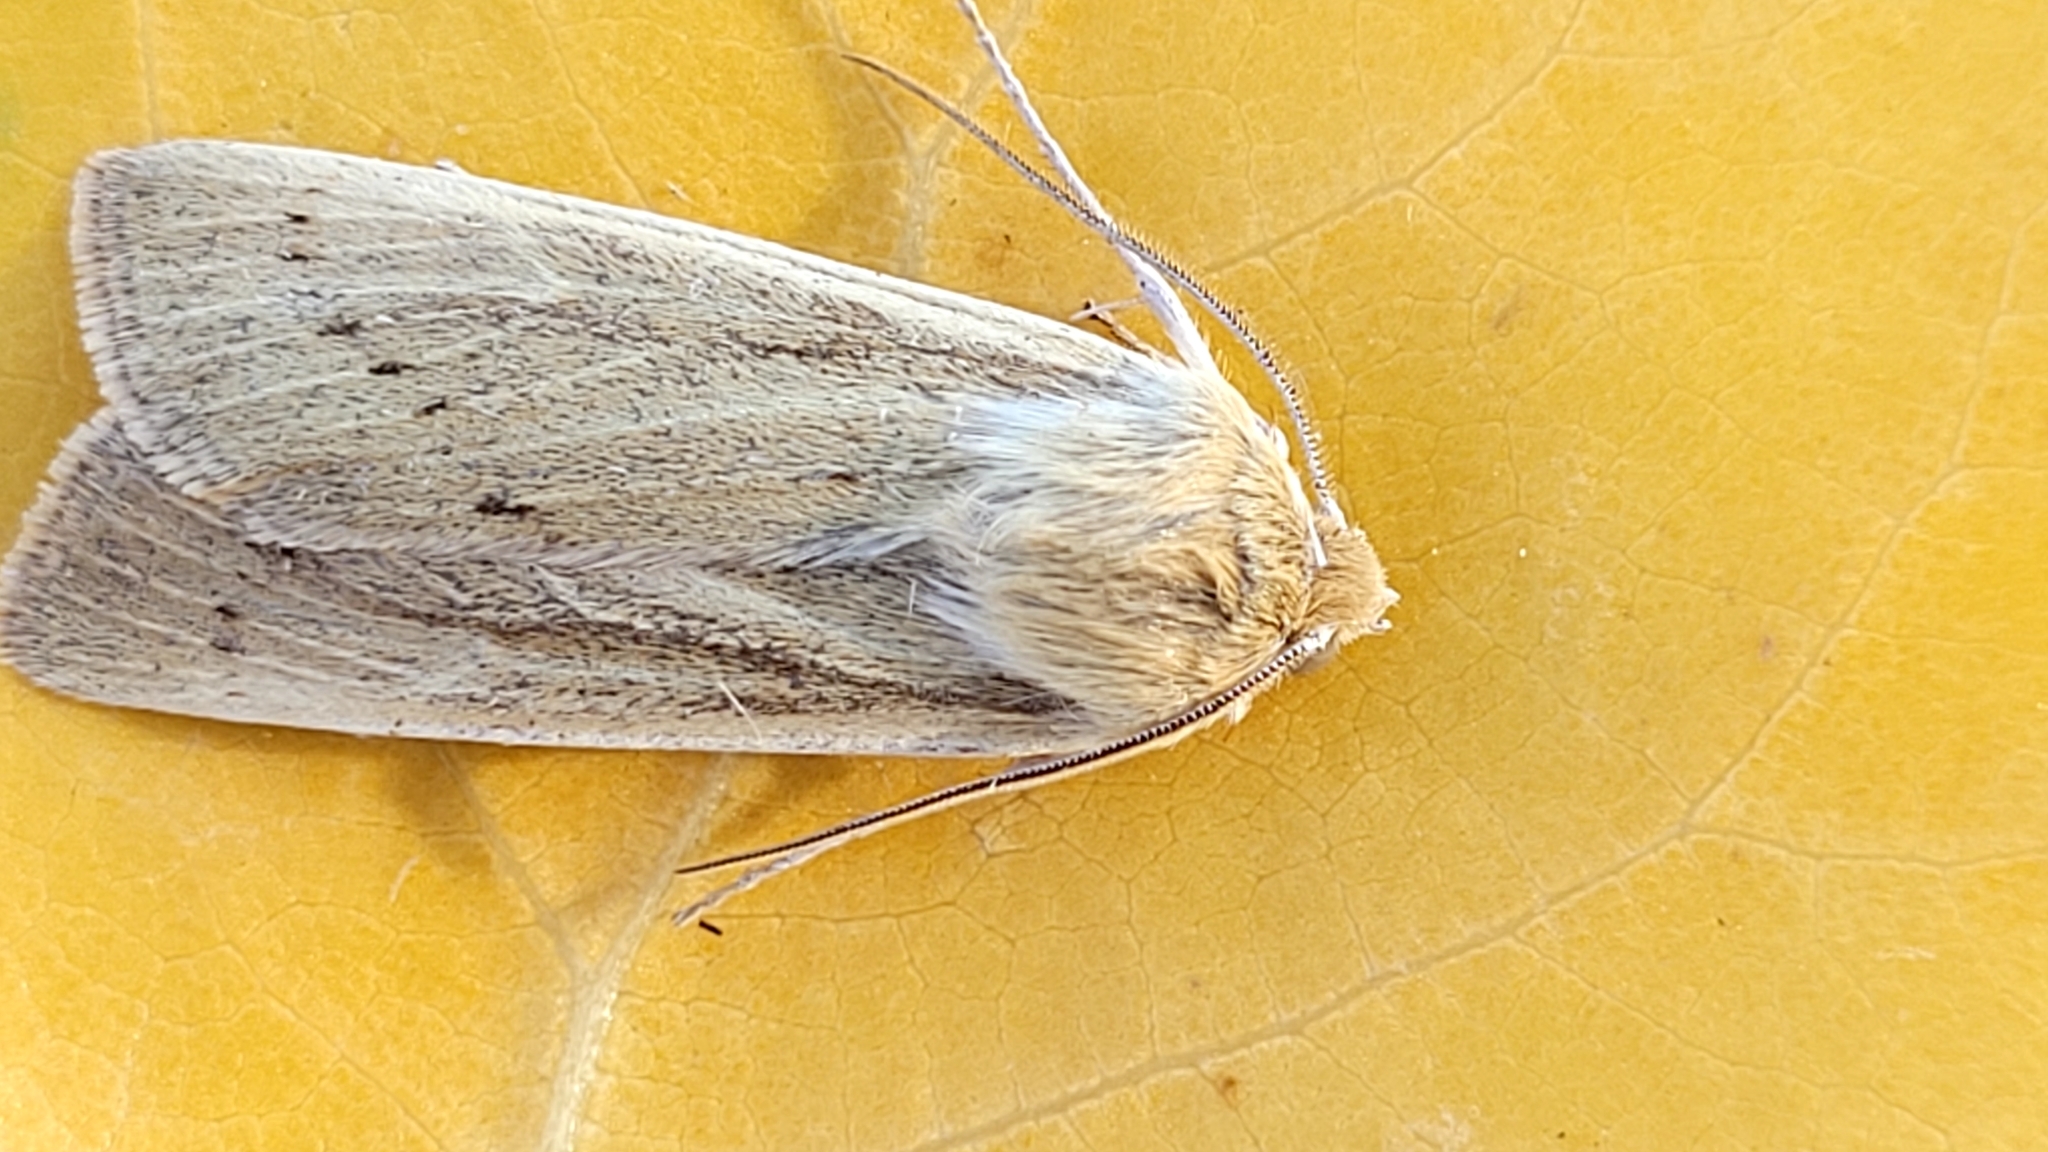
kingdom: Animalia
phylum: Arthropoda
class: Insecta
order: Lepidoptera
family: Noctuidae
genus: Copablepharon
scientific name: Copablepharon longipenne
